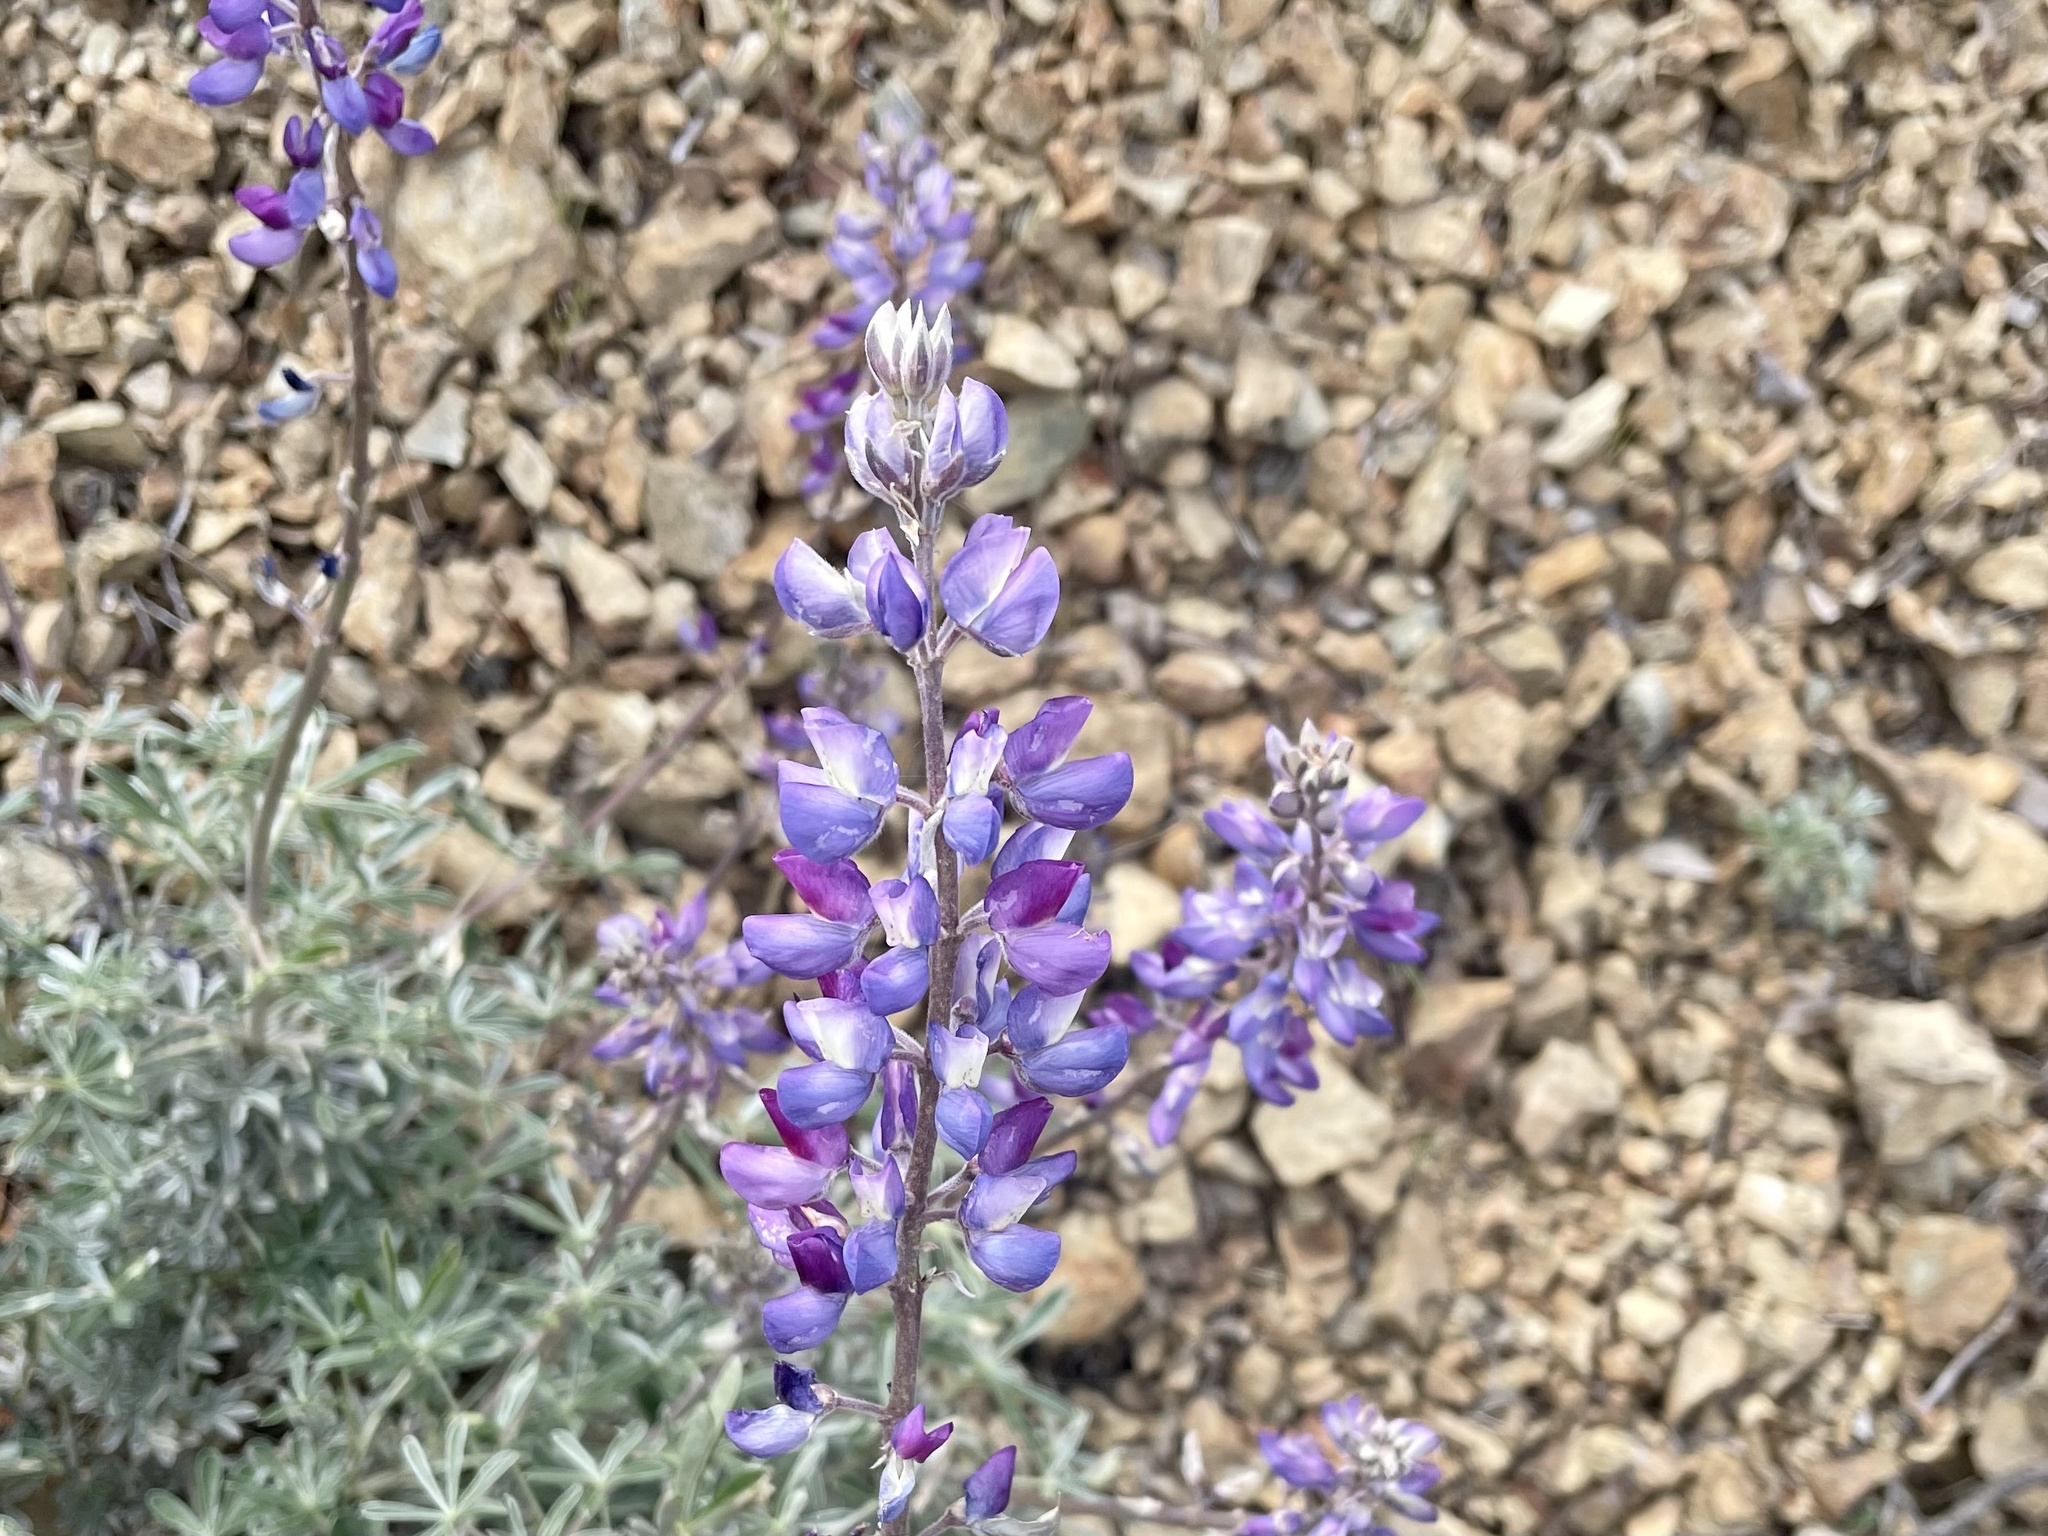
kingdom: Plantae
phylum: Tracheophyta
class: Magnoliopsida
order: Fabales
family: Fabaceae
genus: Lupinus
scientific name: Lupinus albifrons
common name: Foothill lupine
